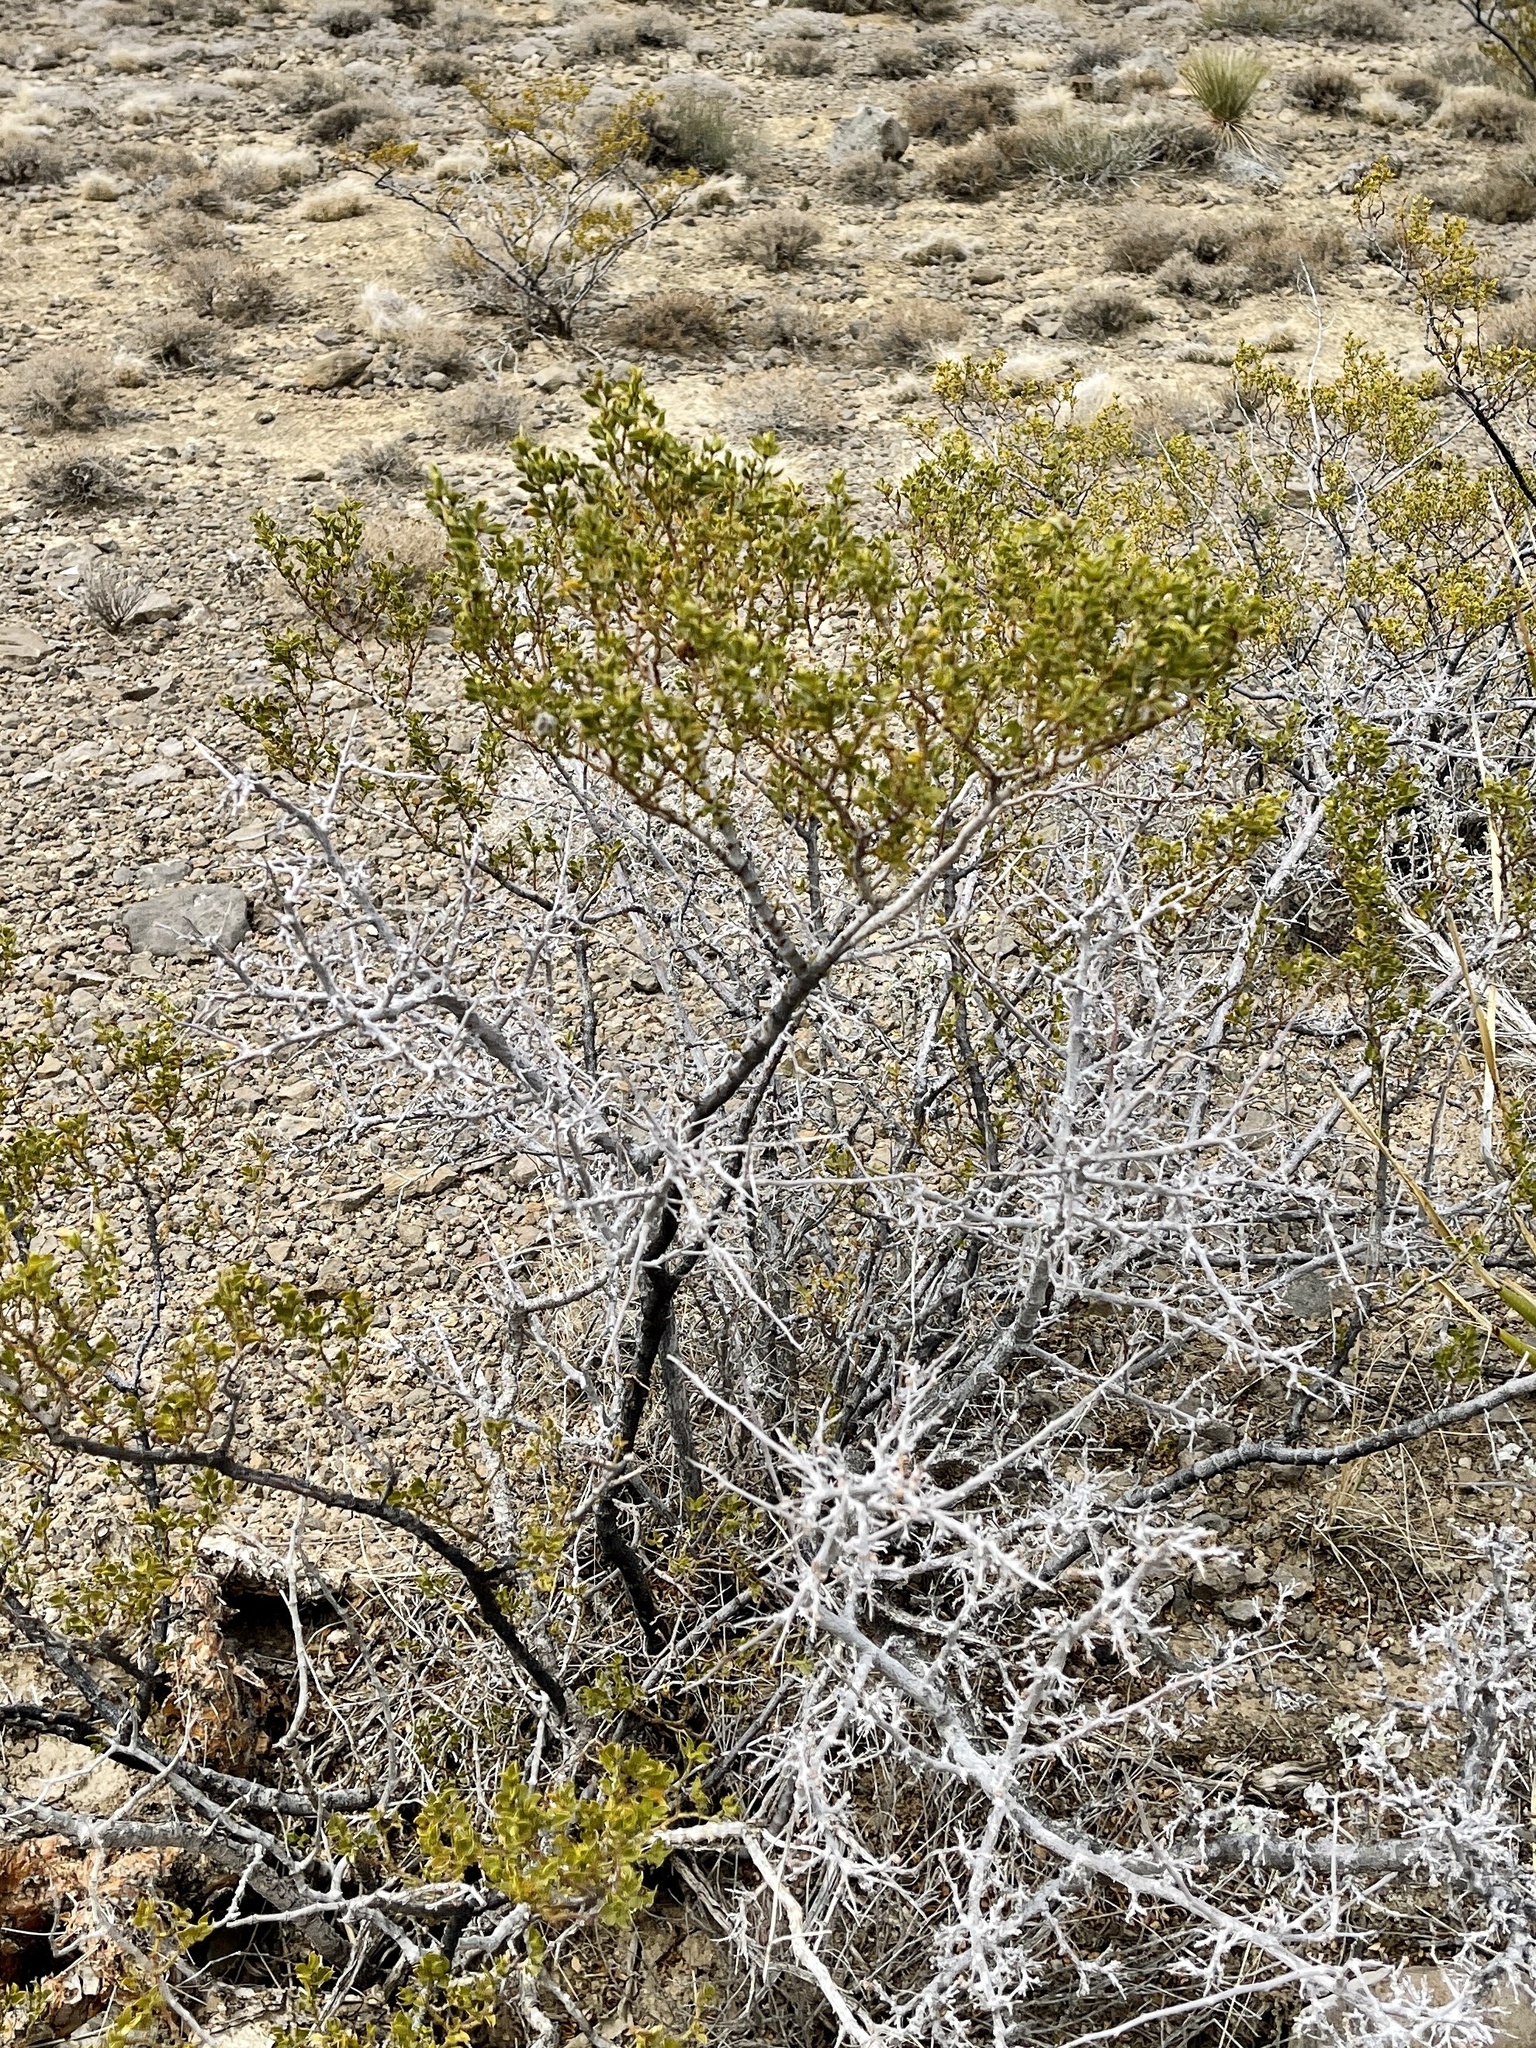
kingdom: Plantae
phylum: Tracheophyta
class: Magnoliopsida
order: Zygophyllales
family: Zygophyllaceae
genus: Larrea
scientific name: Larrea tridentata
